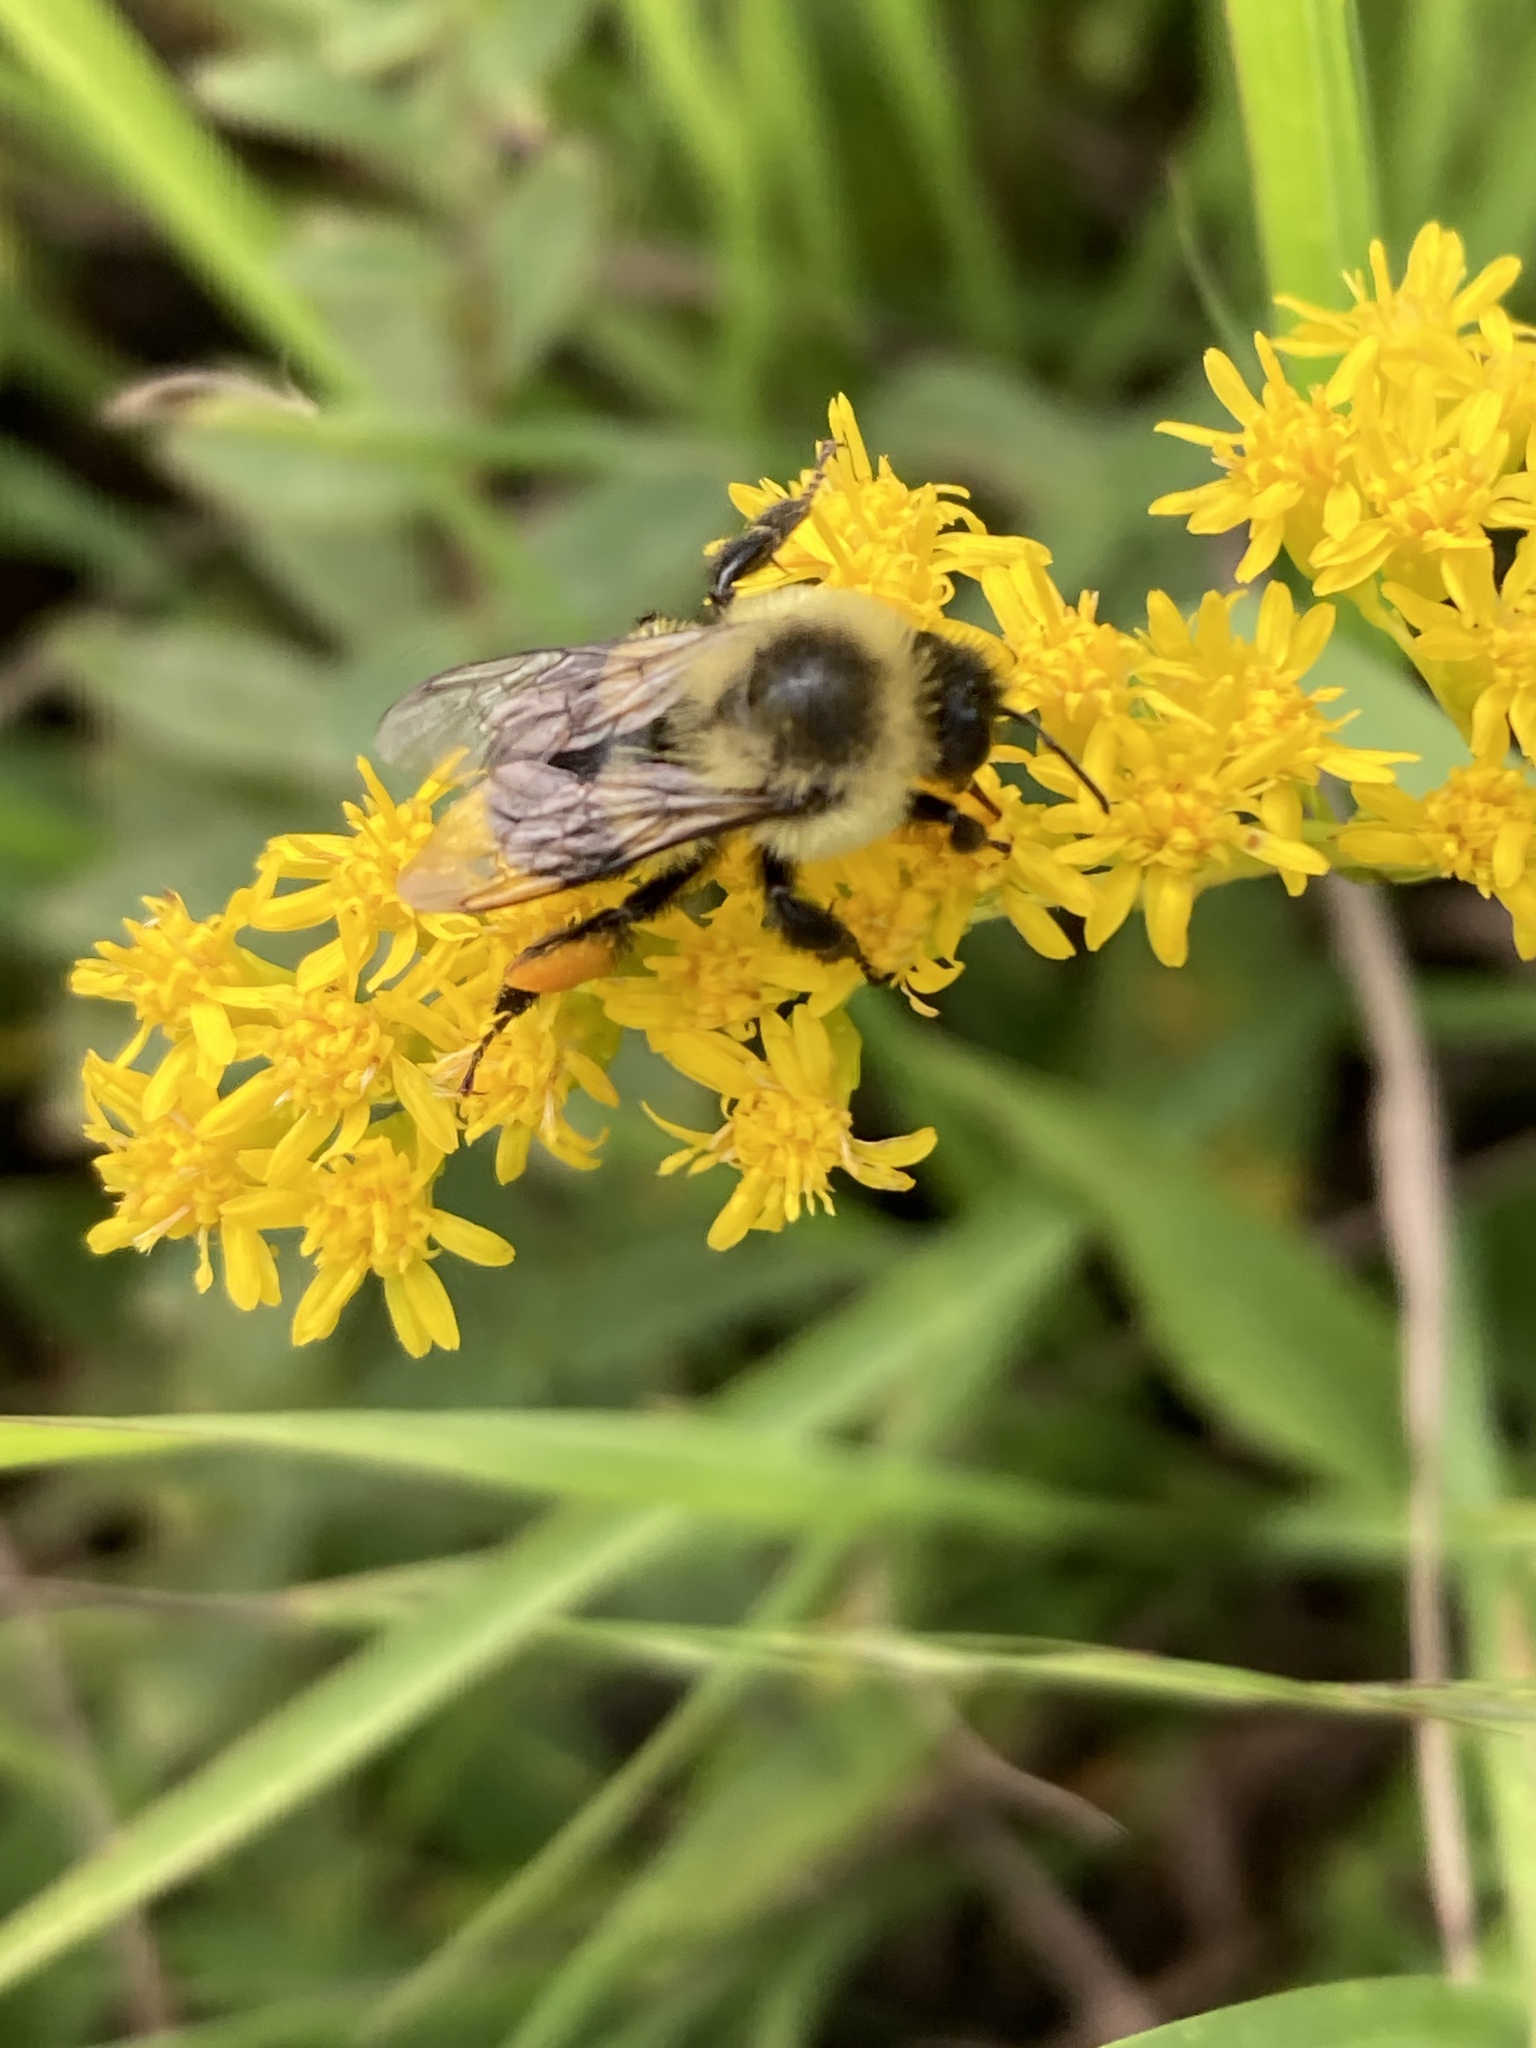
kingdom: Animalia
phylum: Arthropoda
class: Insecta
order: Hymenoptera
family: Apidae
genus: Bombus
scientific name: Bombus impatiens
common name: Common eastern bumble bee
